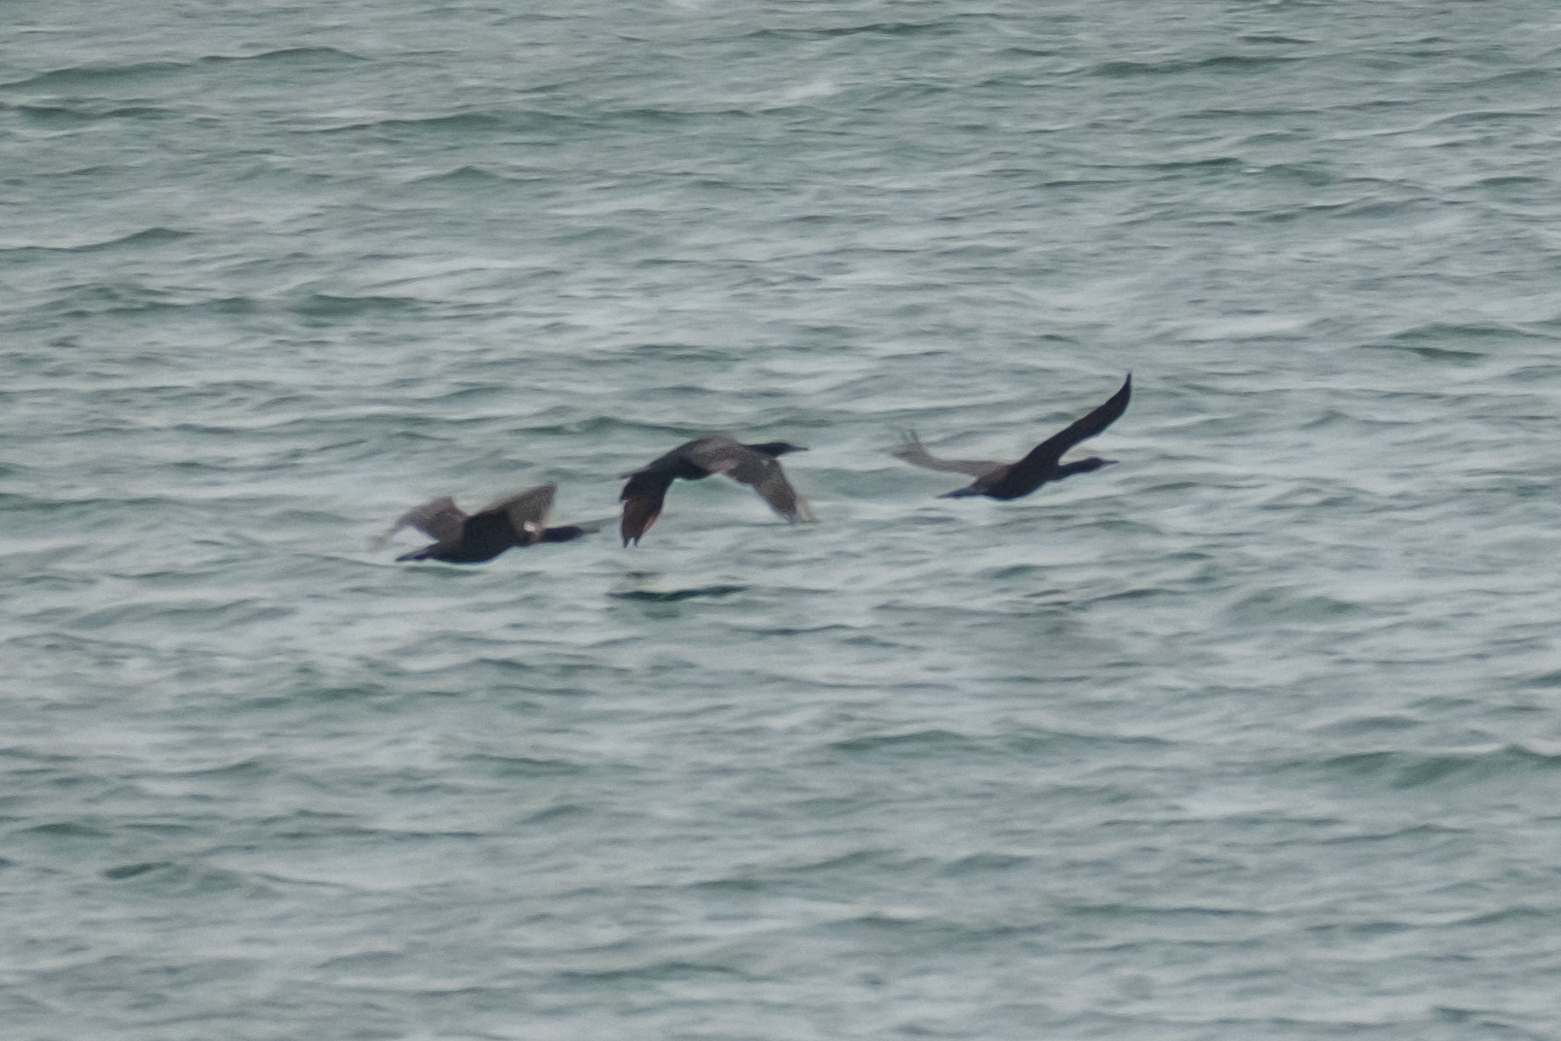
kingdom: Animalia
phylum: Chordata
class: Aves
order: Suliformes
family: Phalacrocoracidae
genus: Urile
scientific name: Urile penicillatus
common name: Brandt's cormorant
